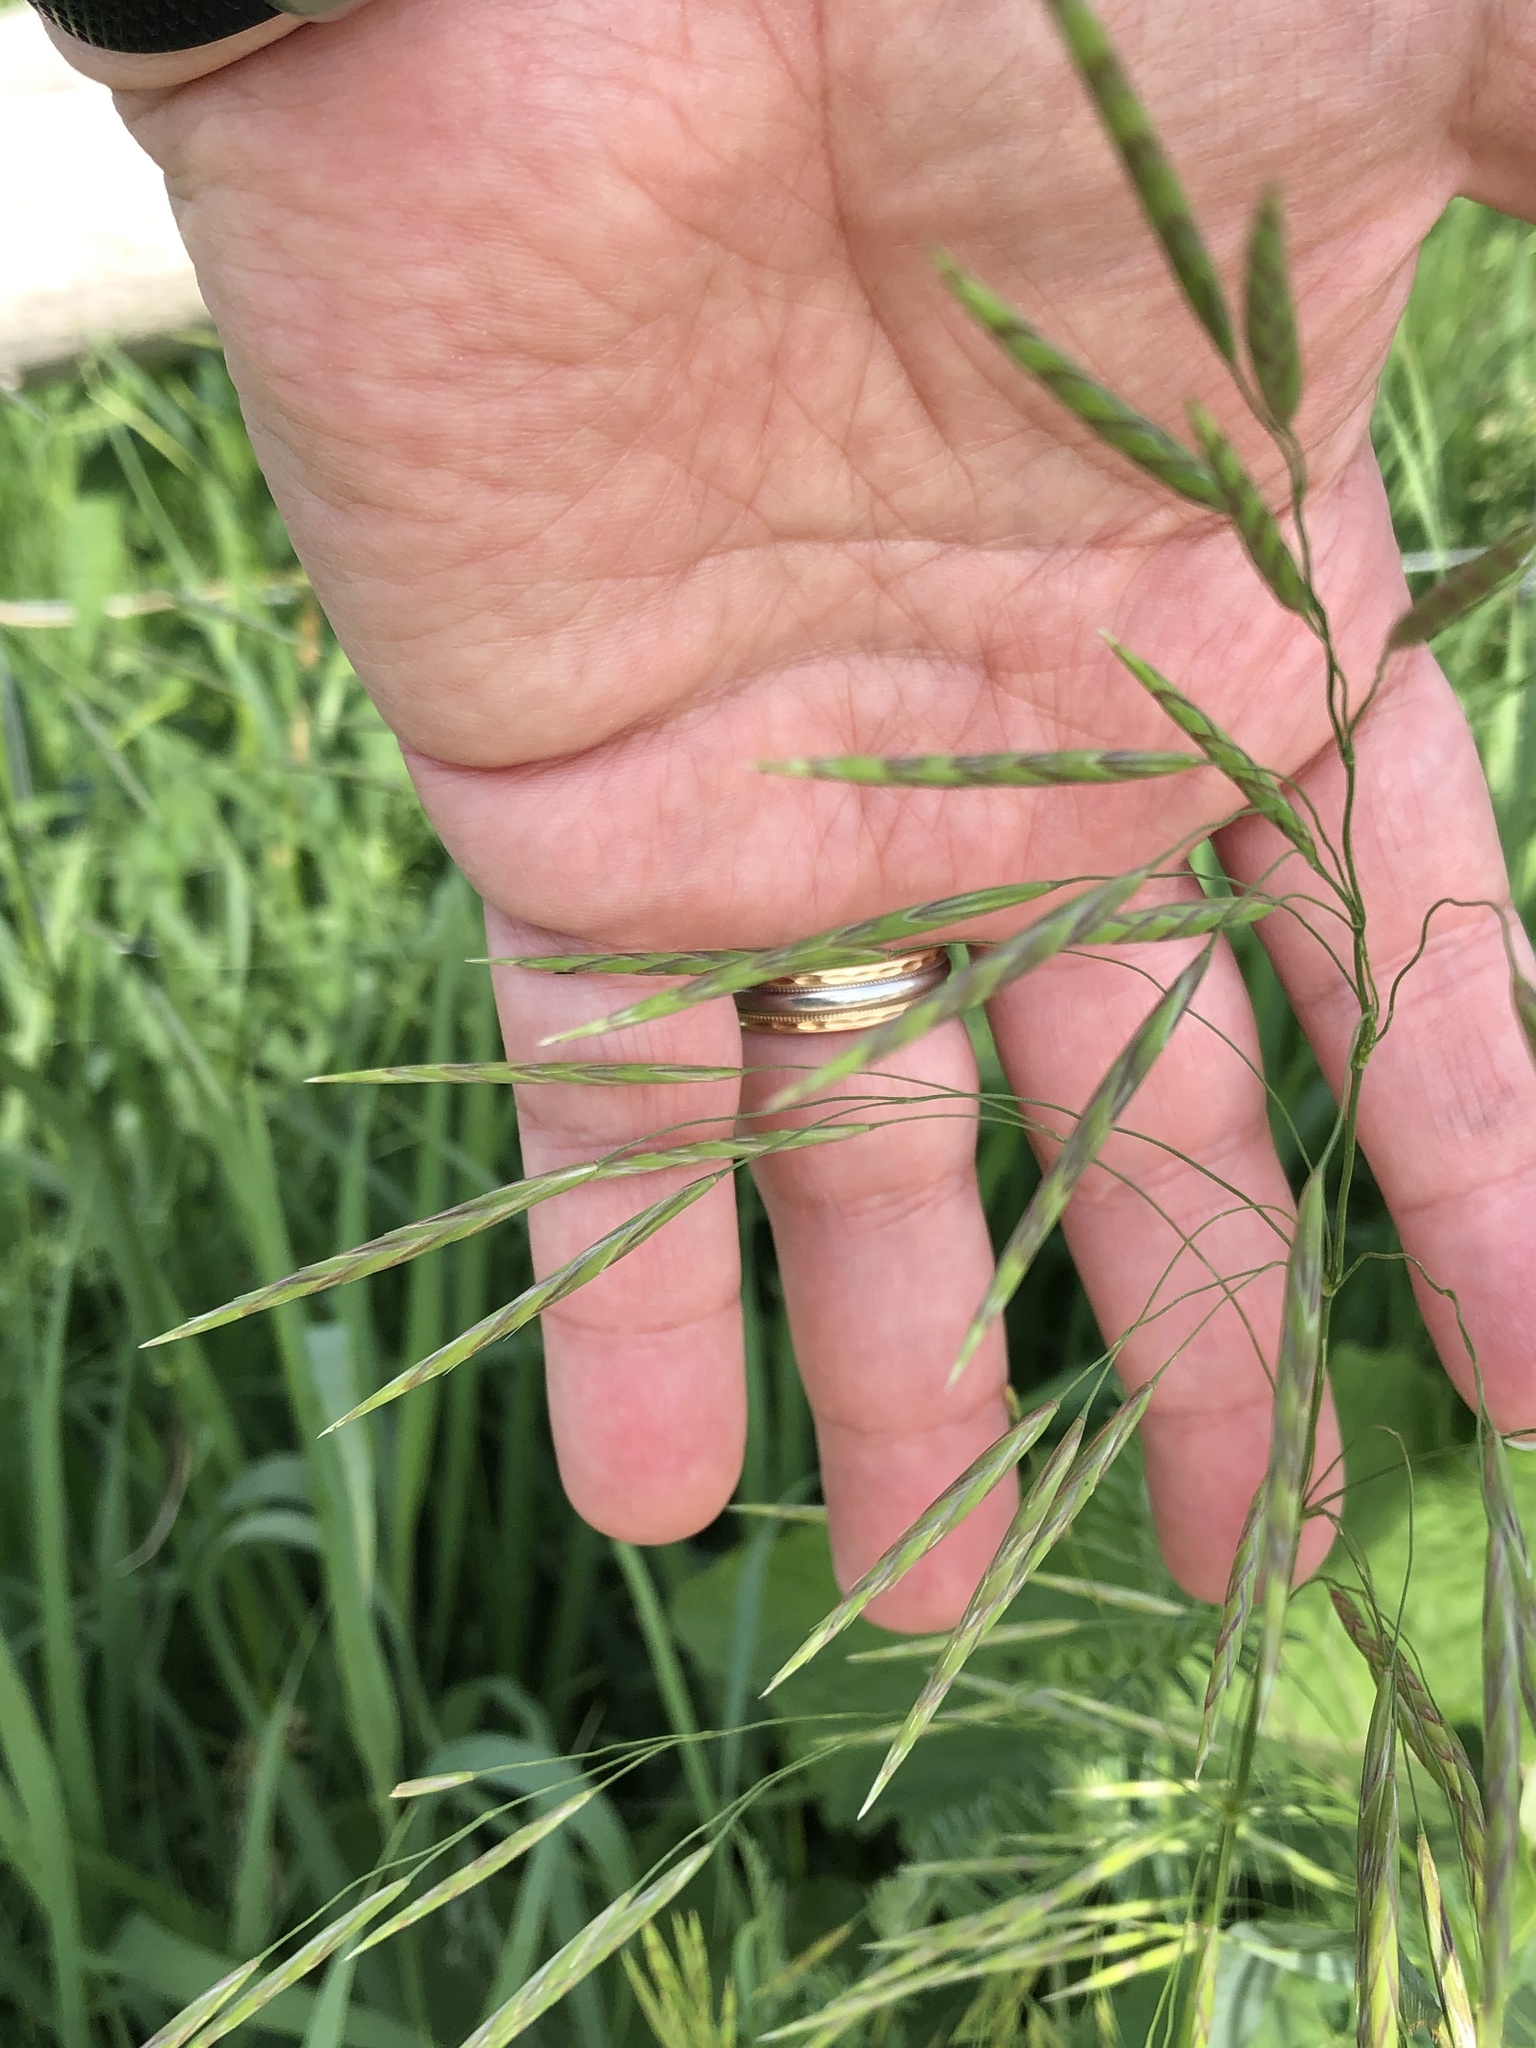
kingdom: Plantae
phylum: Tracheophyta
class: Liliopsida
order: Poales
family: Poaceae
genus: Bromus
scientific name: Bromus inermis
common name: Smooth brome
